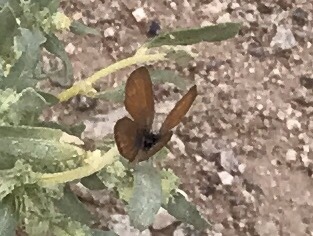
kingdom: Animalia
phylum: Arthropoda
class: Insecta
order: Lepidoptera
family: Lycaenidae
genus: Brephidium
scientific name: Brephidium exilis
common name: Pygmy blue
